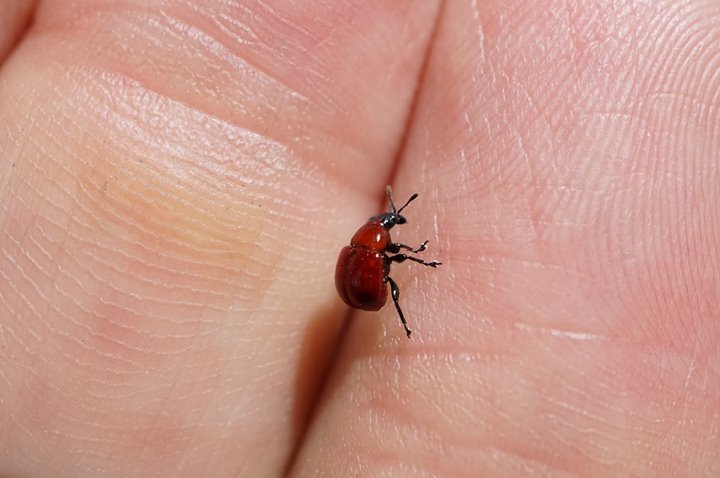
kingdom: Animalia
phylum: Arthropoda
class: Insecta
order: Coleoptera
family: Attelabidae
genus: Homoeolabus
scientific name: Homoeolabus analis
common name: Oak leaf rolling weevil
